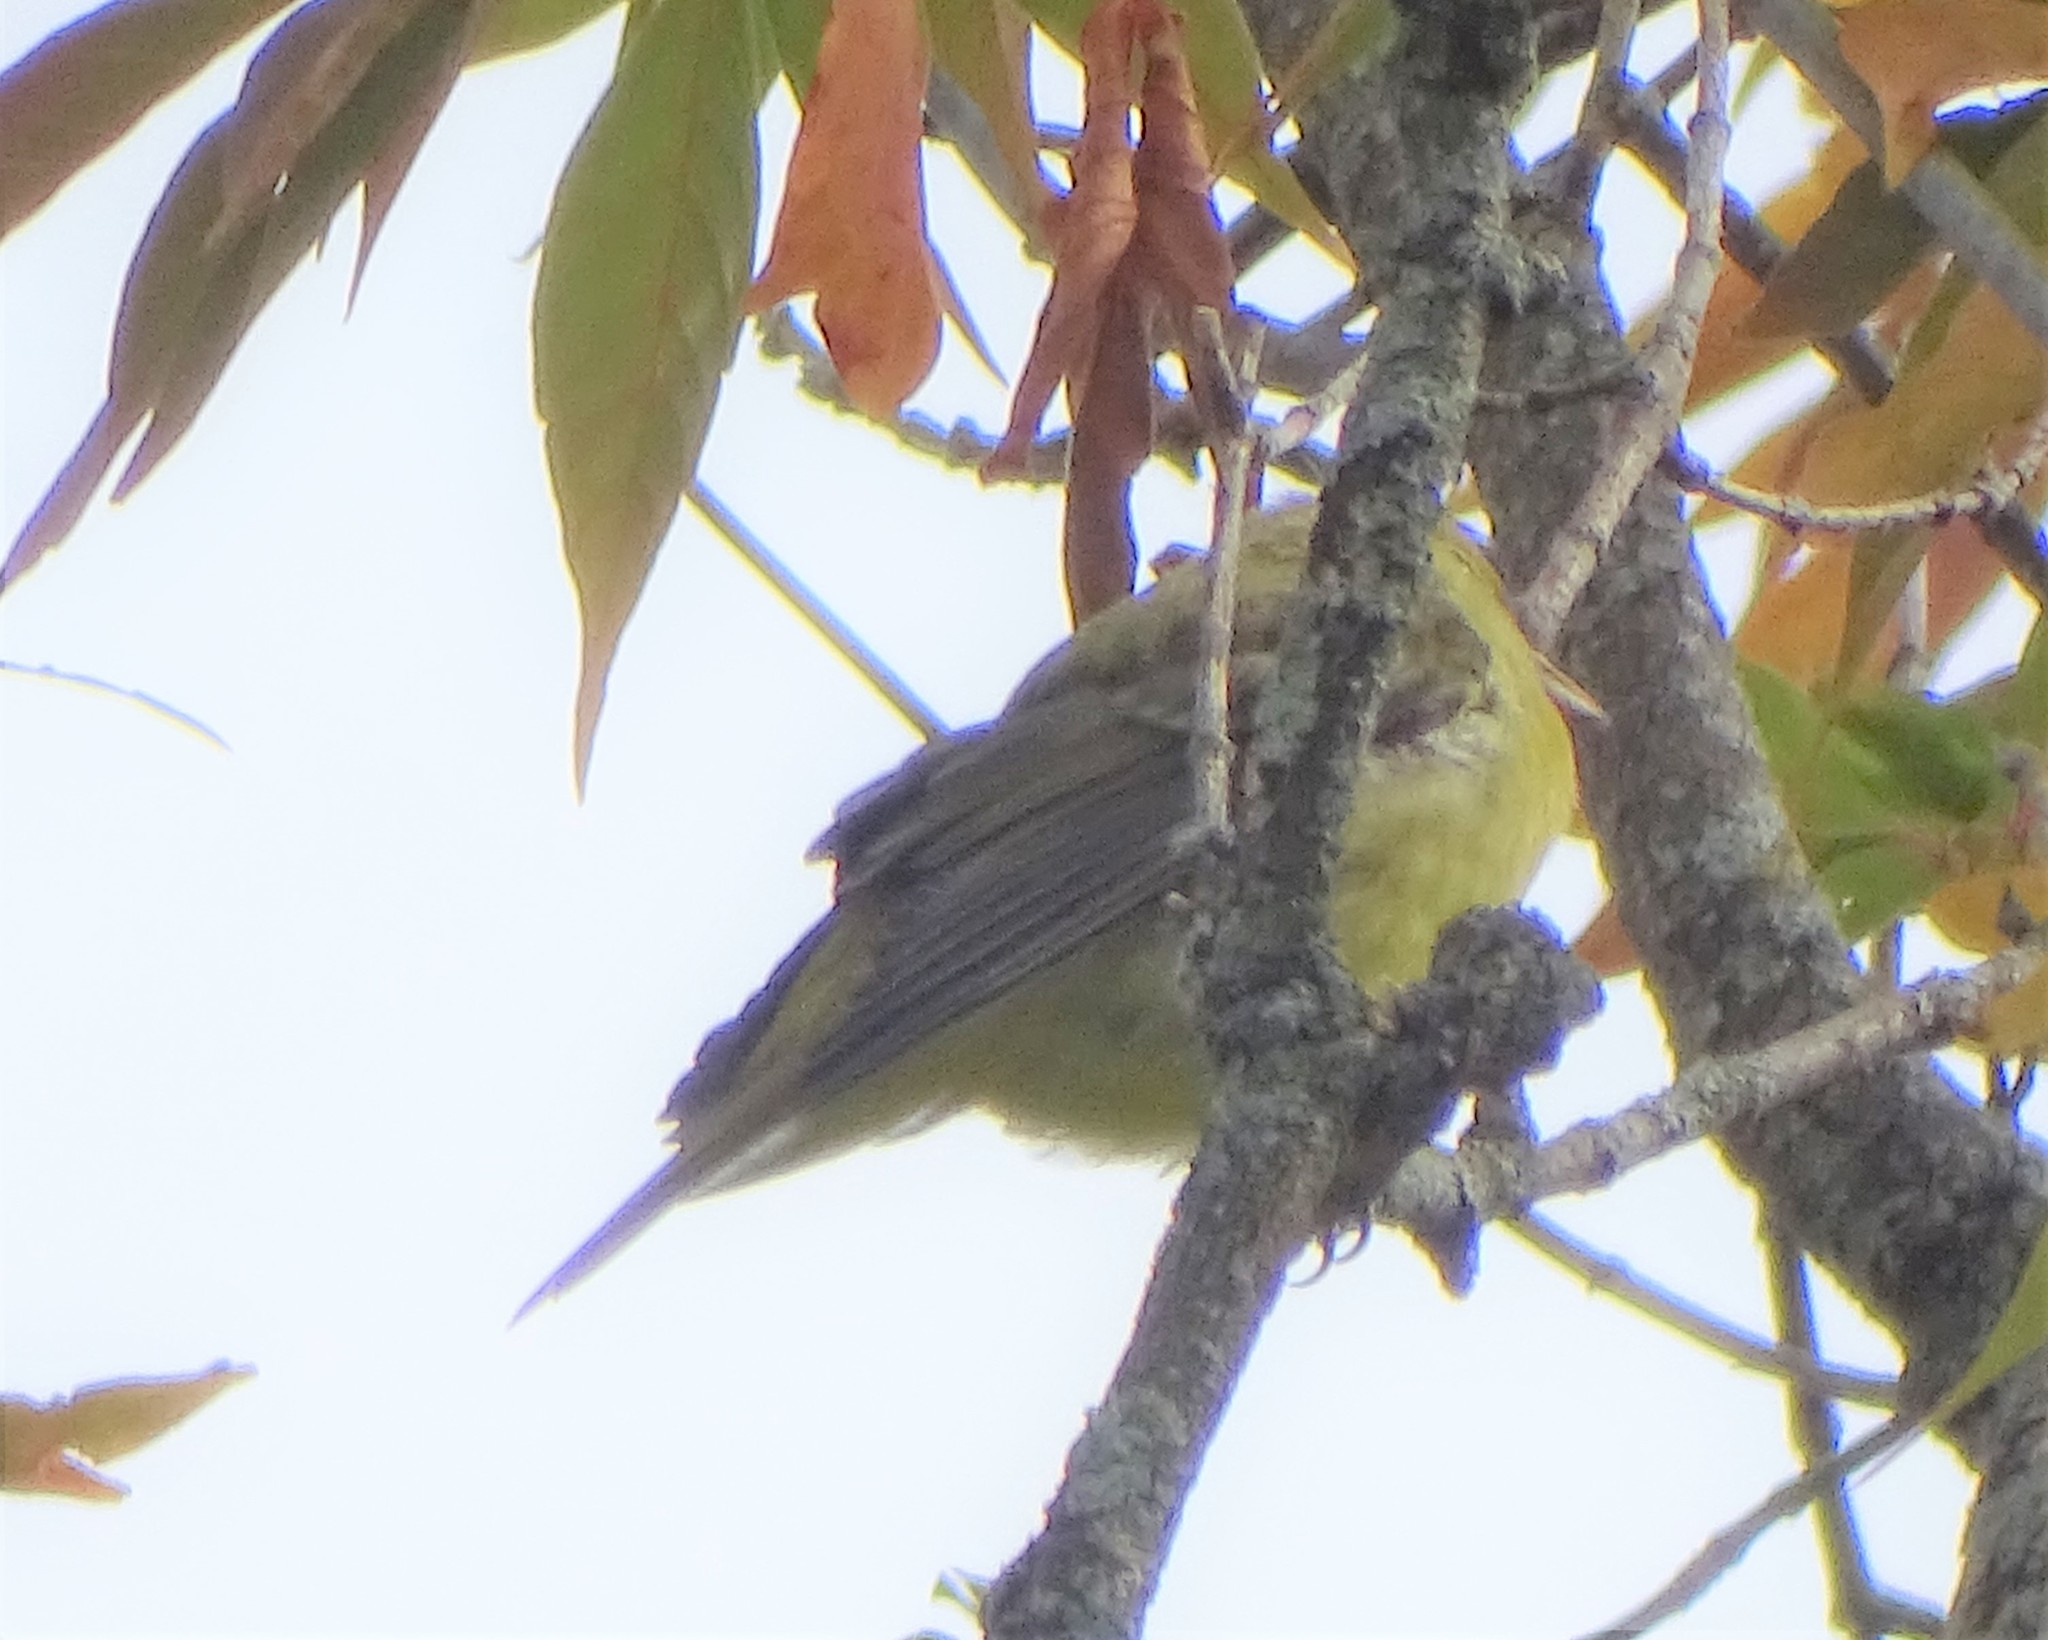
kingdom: Animalia
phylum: Chordata
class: Aves
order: Passeriformes
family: Cardinalidae
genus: Piranga
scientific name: Piranga olivacea
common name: Scarlet tanager
